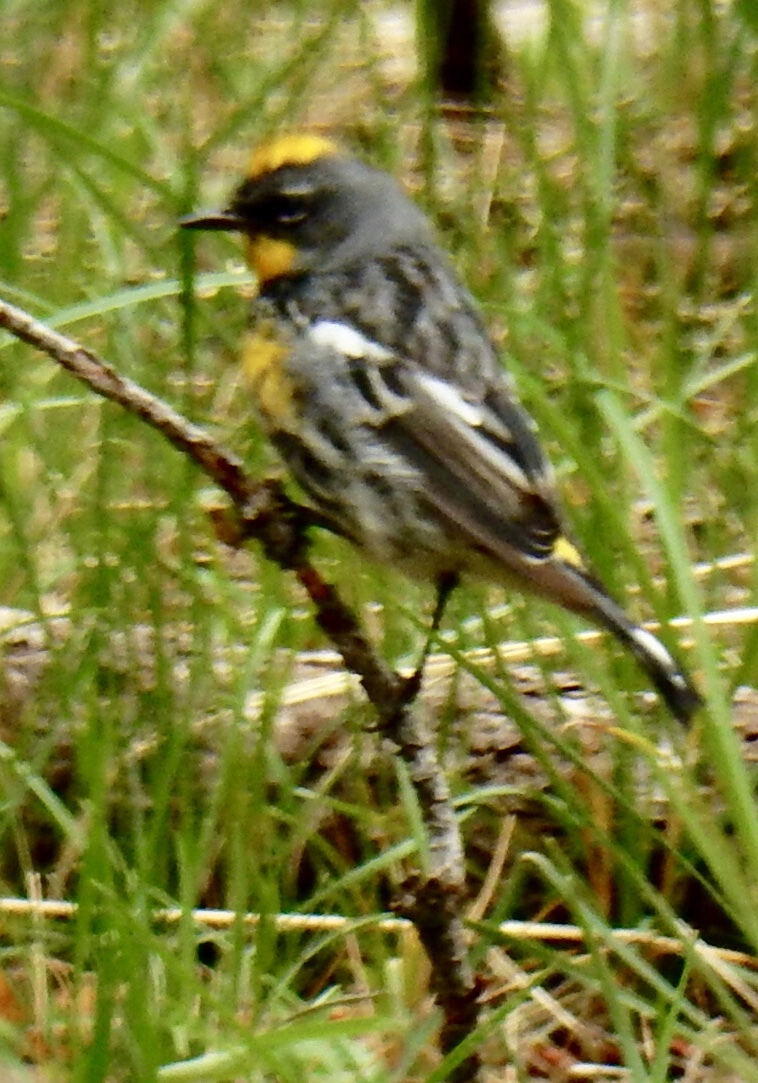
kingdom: Animalia
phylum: Chordata
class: Aves
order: Passeriformes
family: Parulidae
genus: Setophaga
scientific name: Setophaga coronata
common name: Myrtle warbler
